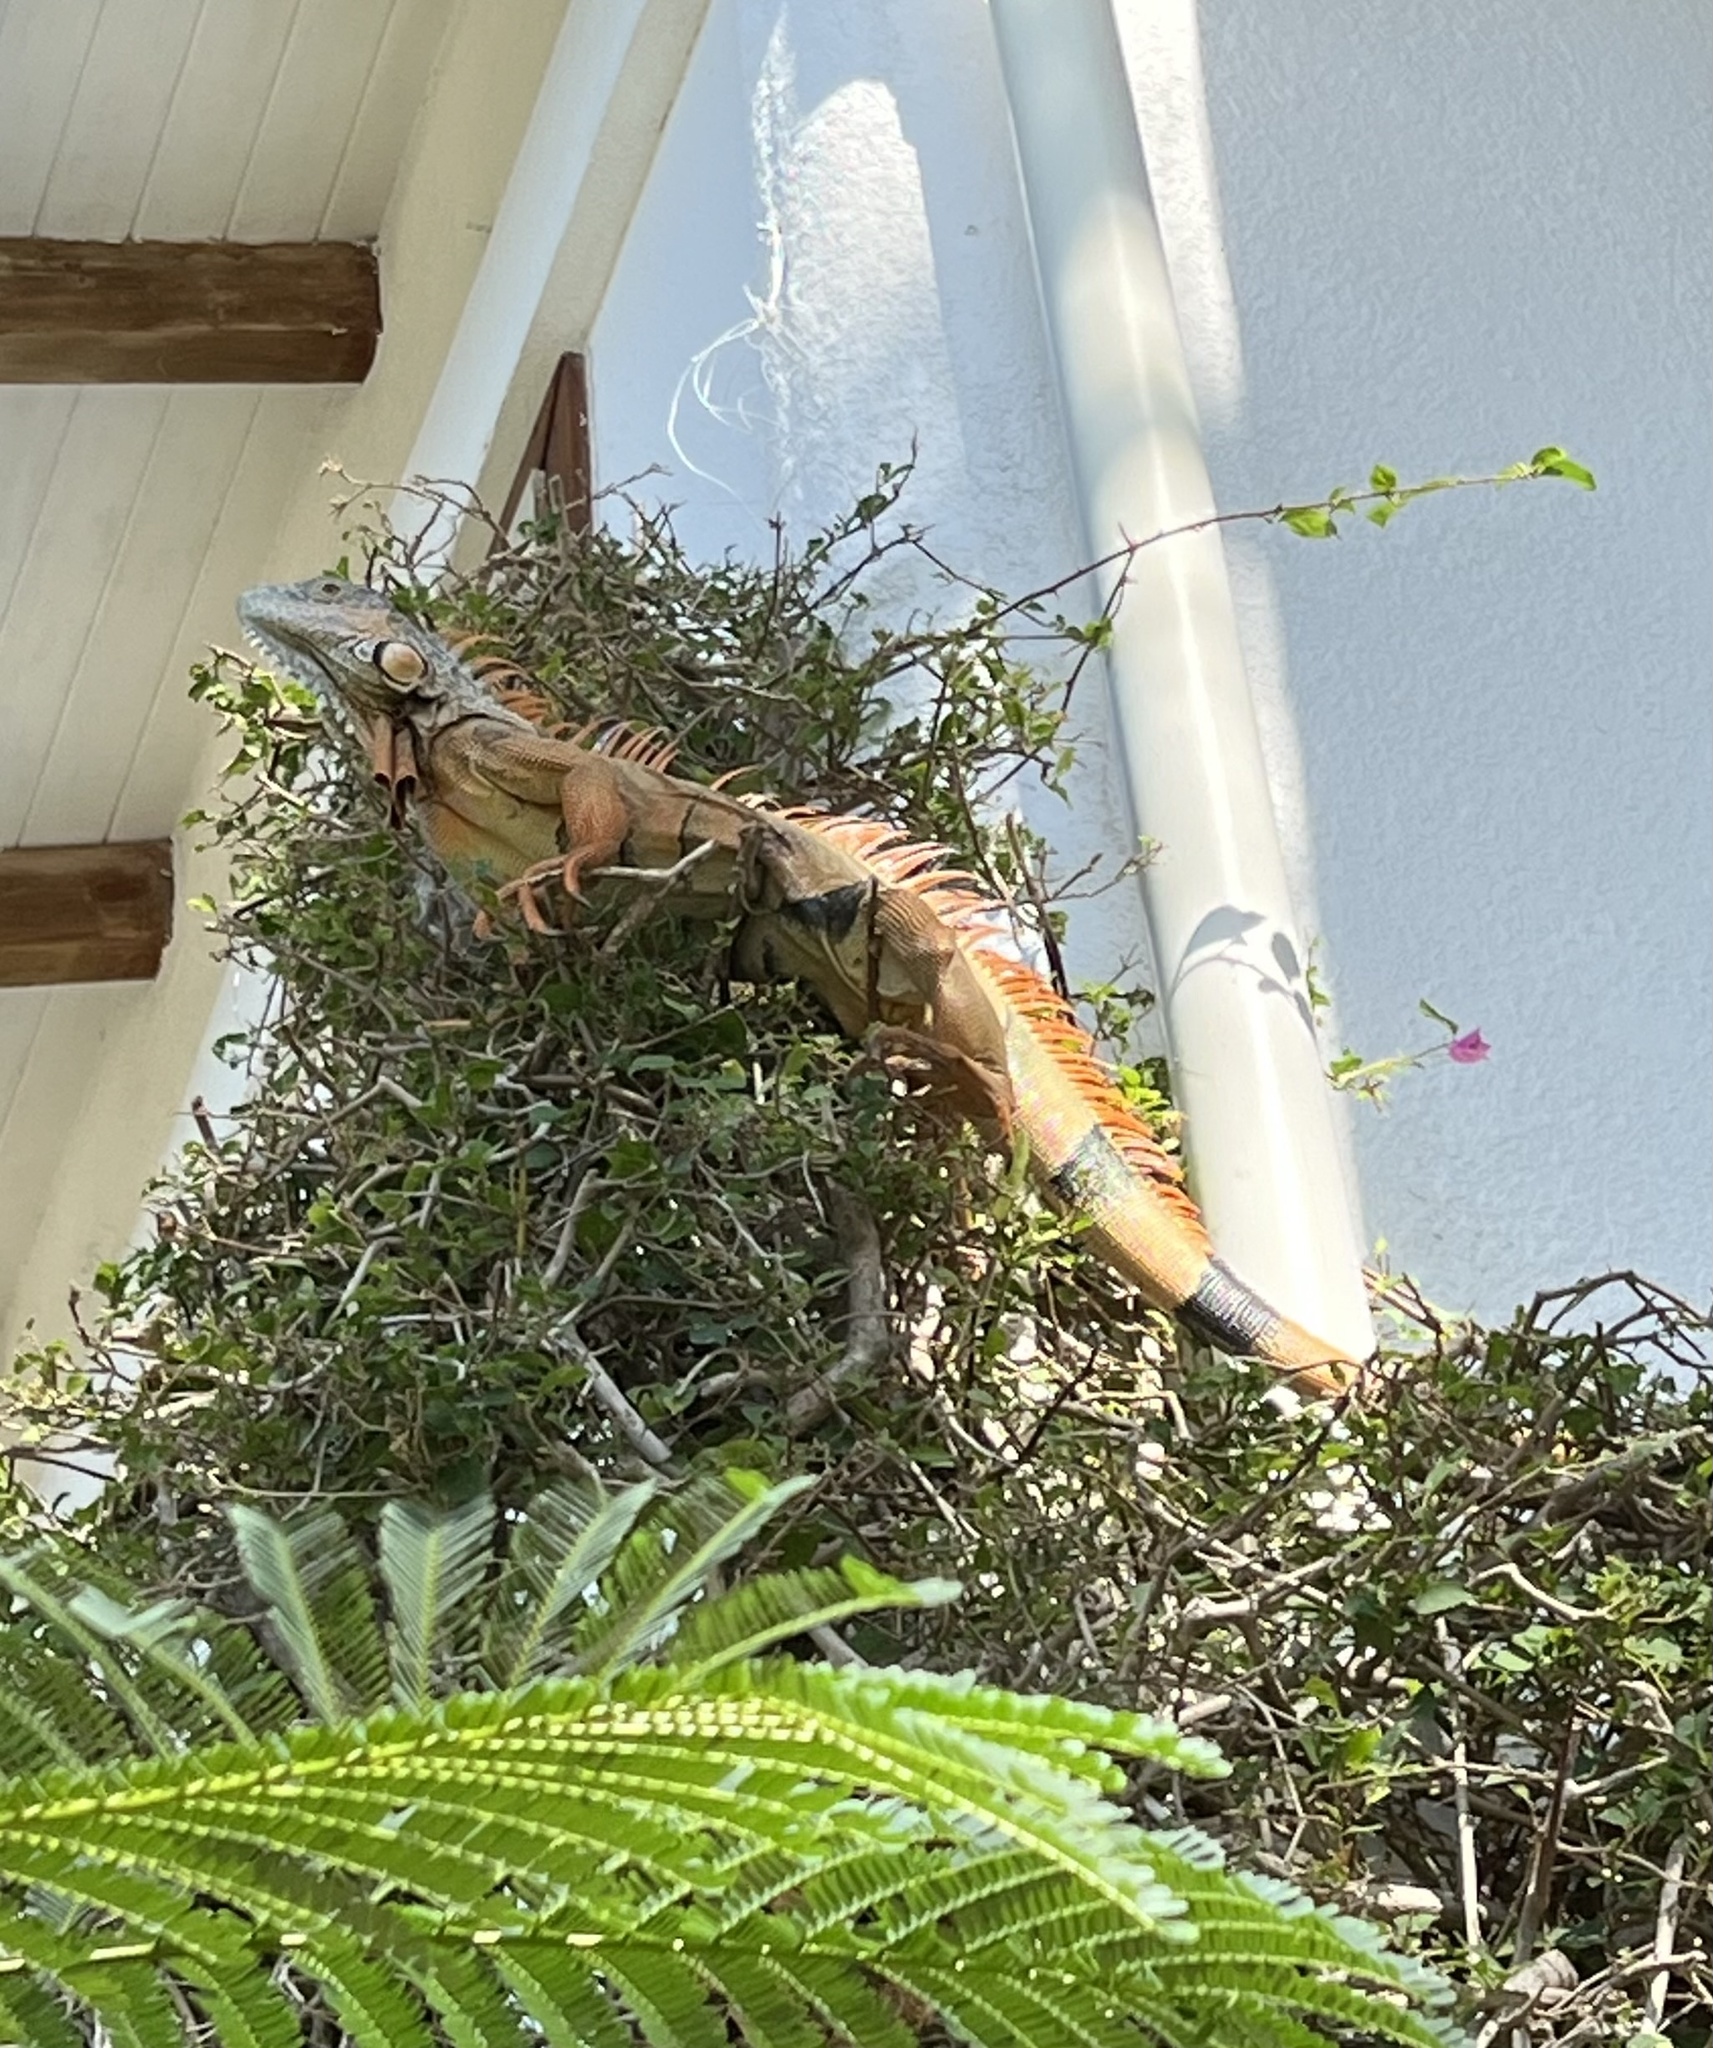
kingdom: Animalia
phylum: Chordata
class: Squamata
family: Iguanidae
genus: Iguana
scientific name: Iguana iguana
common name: Green iguana
